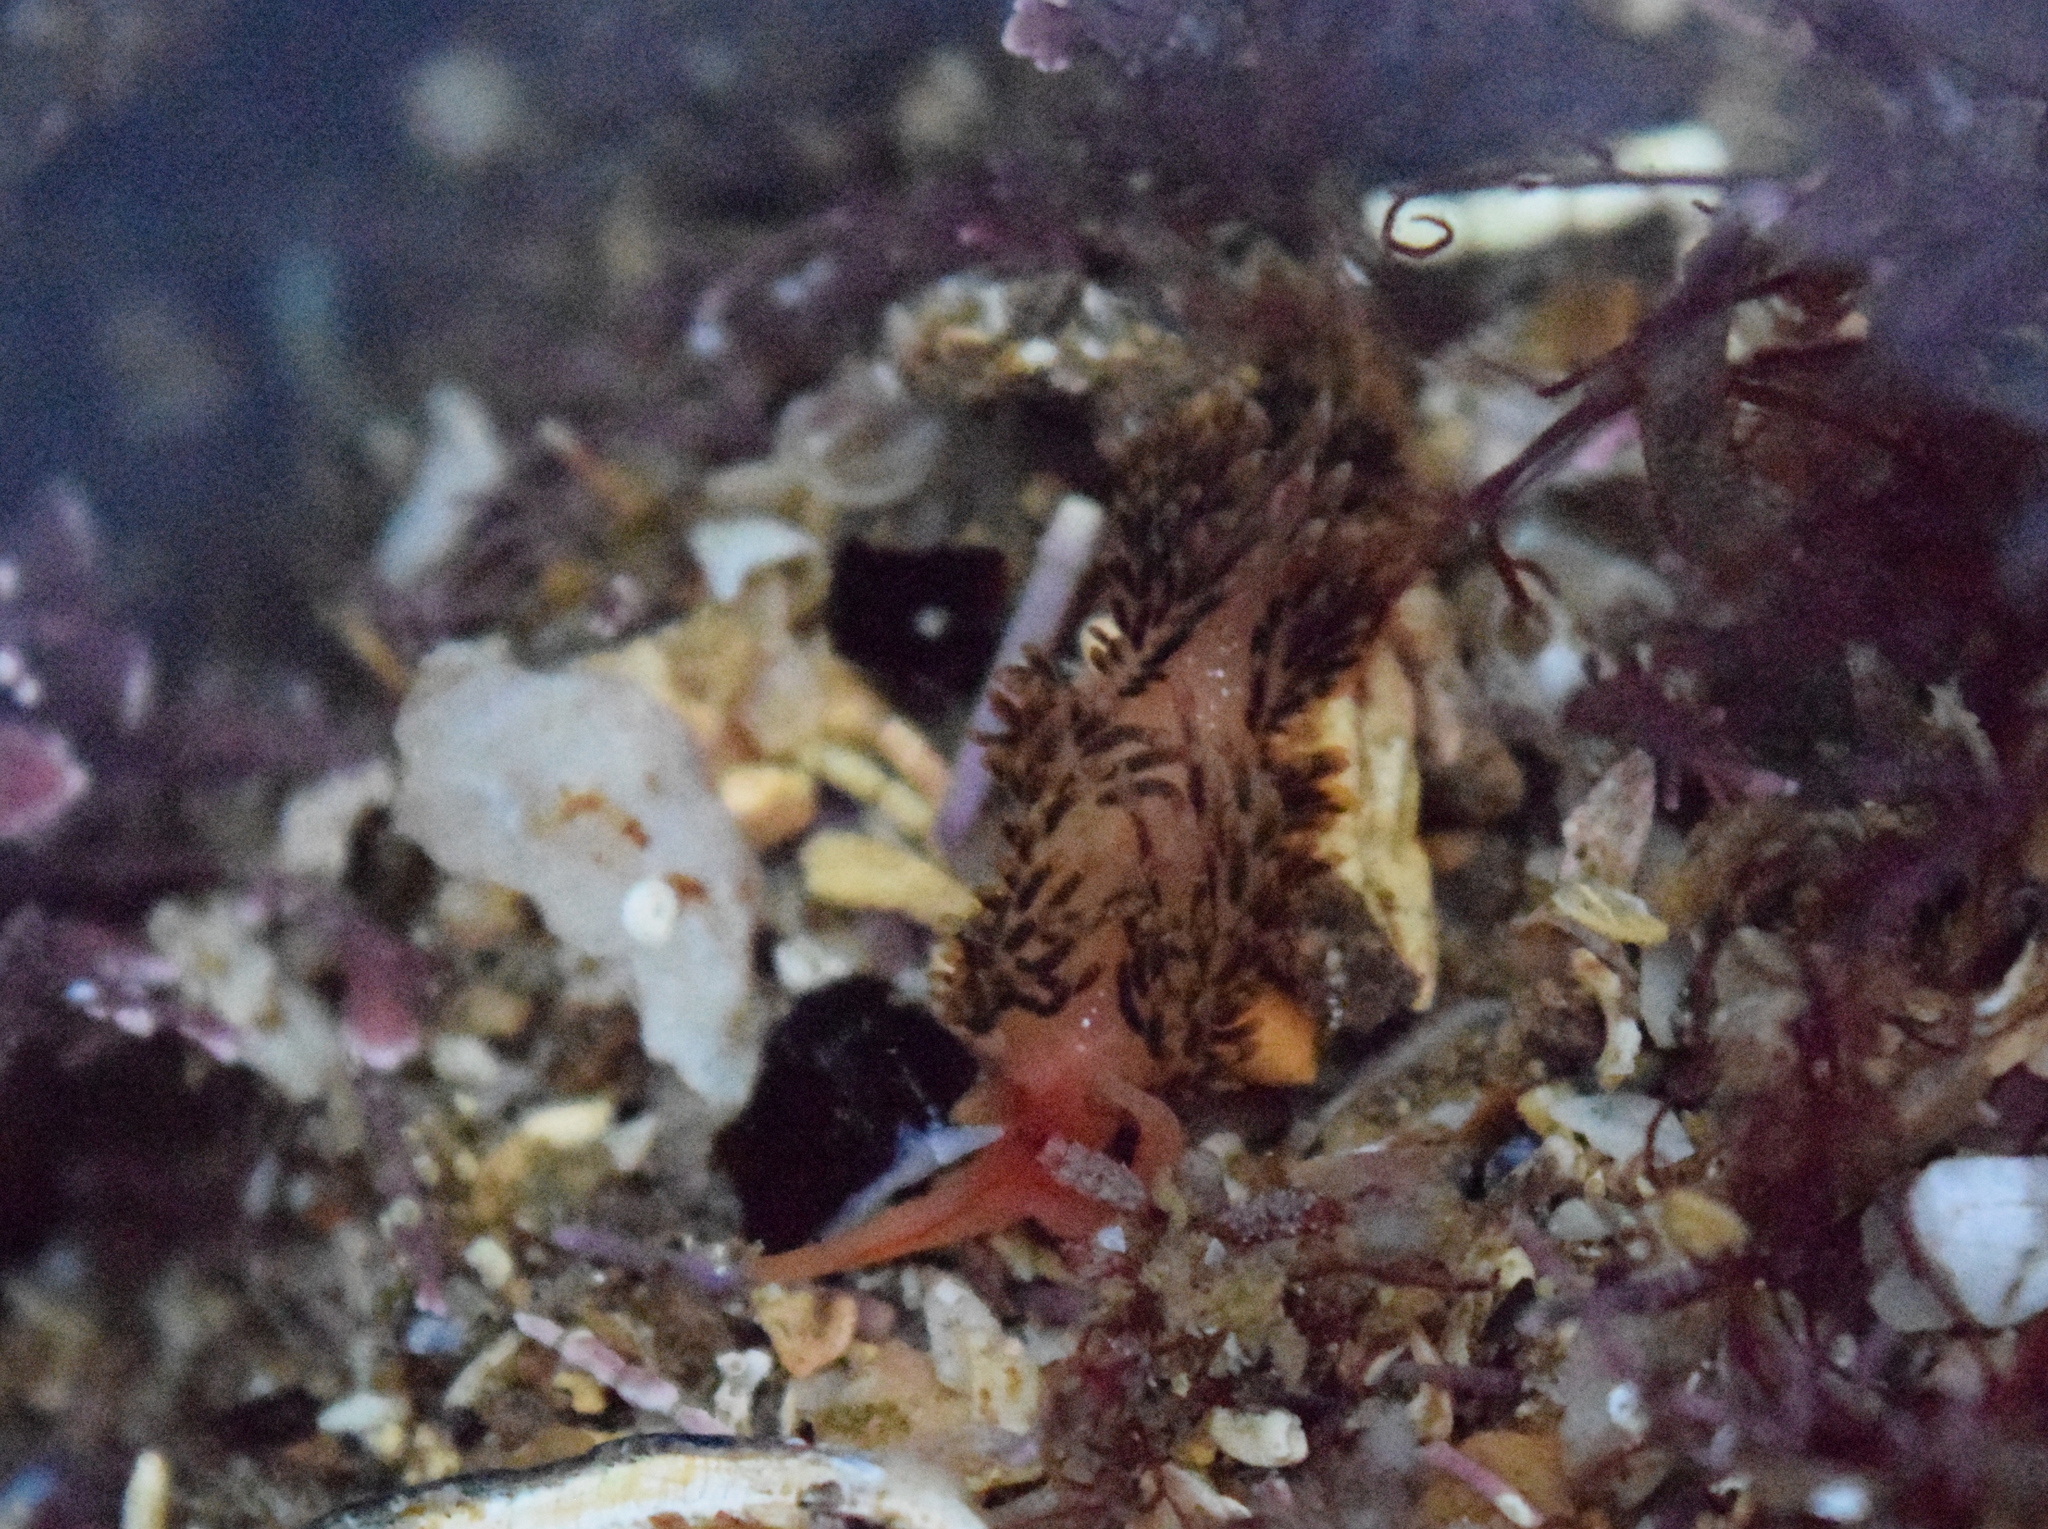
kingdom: Animalia
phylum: Mollusca
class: Gastropoda
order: Nudibranchia
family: Facelinidae
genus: Phidiana
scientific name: Phidiana hiltoni
